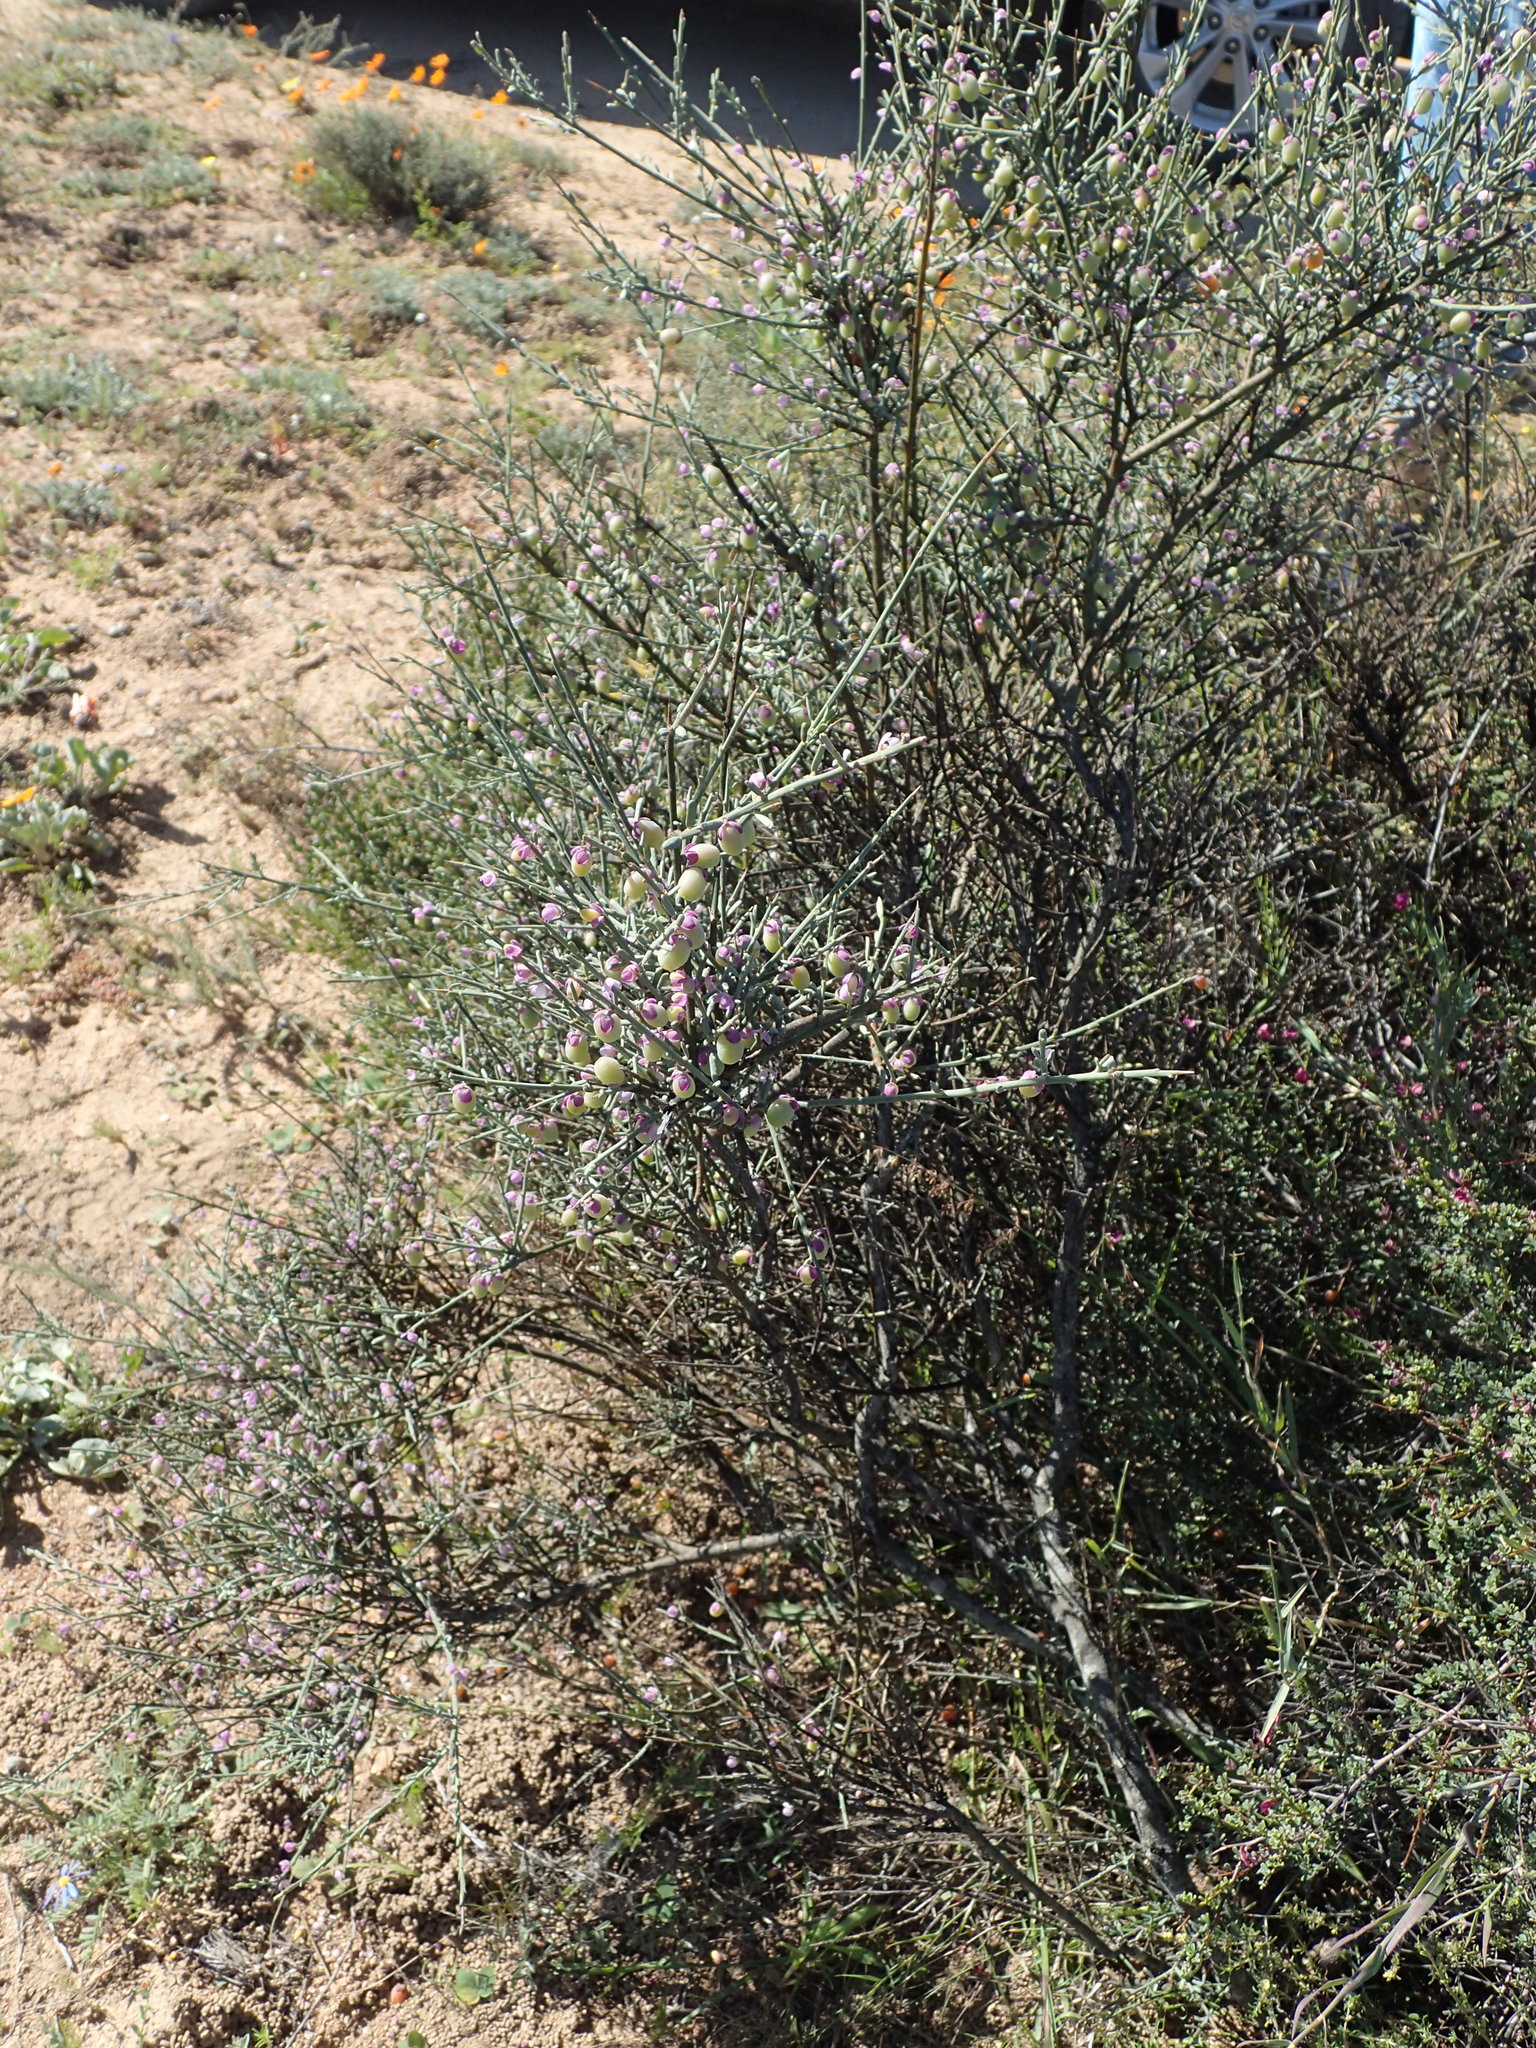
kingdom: Plantae
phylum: Tracheophyta
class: Magnoliopsida
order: Fabales
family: Polygalaceae
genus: Muraltia
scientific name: Muraltia spinosa
